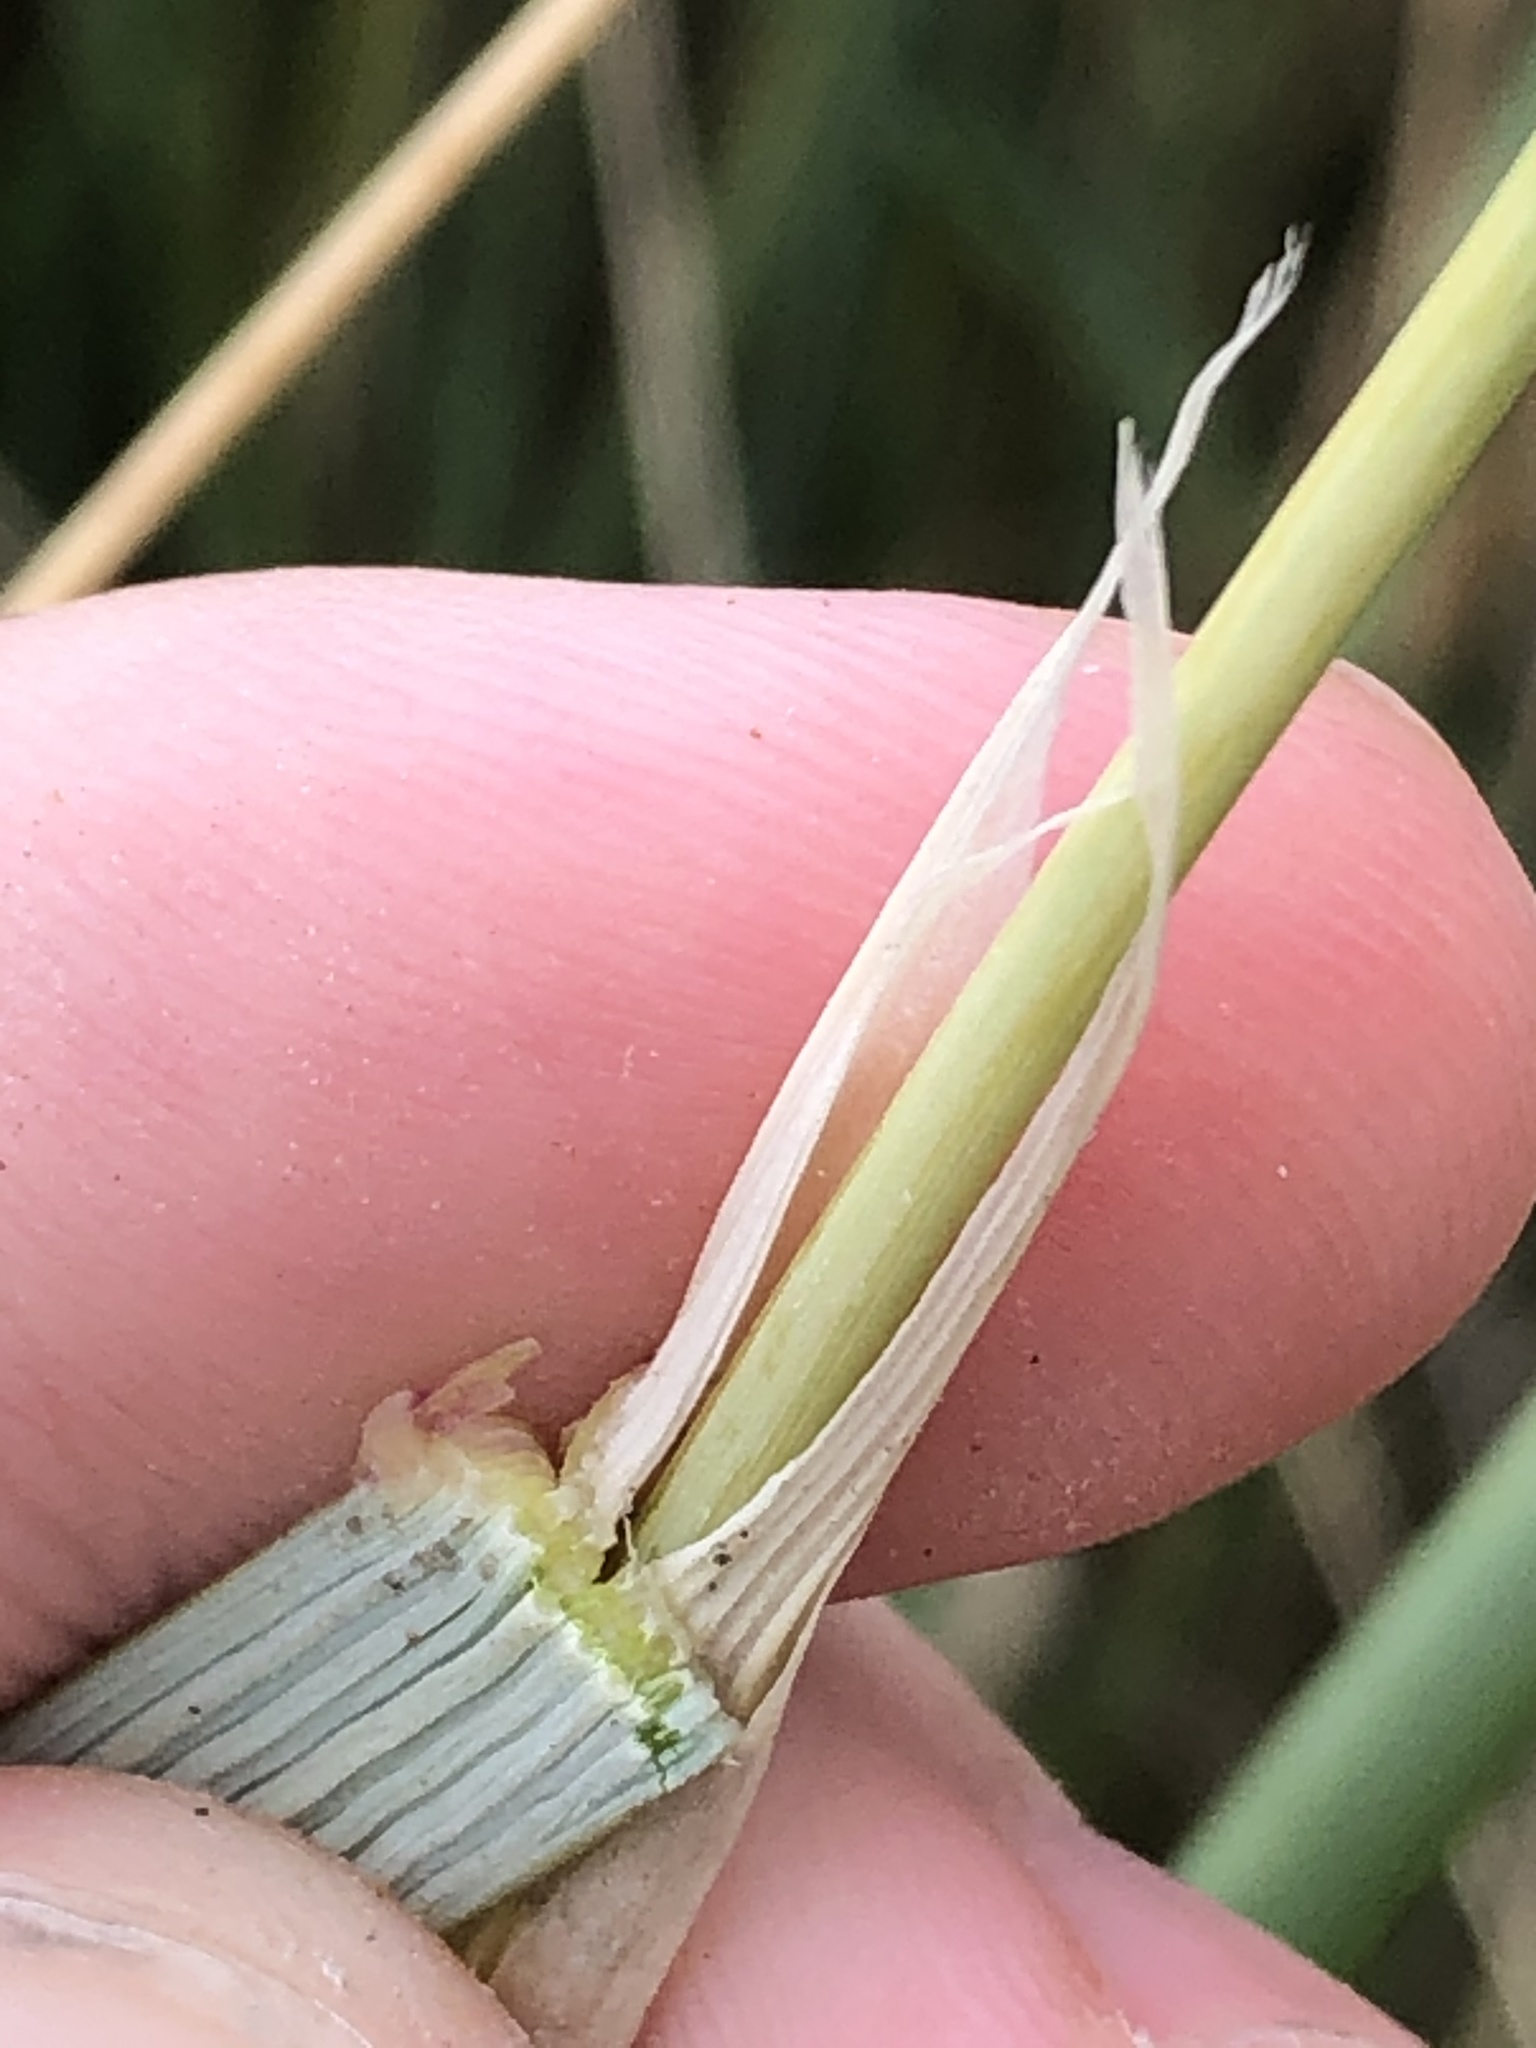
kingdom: Plantae
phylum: Tracheophyta
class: Liliopsida
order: Poales
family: Poaceae
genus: Calamagrostis
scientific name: Calamagrostis arenaria
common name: European beachgrass
